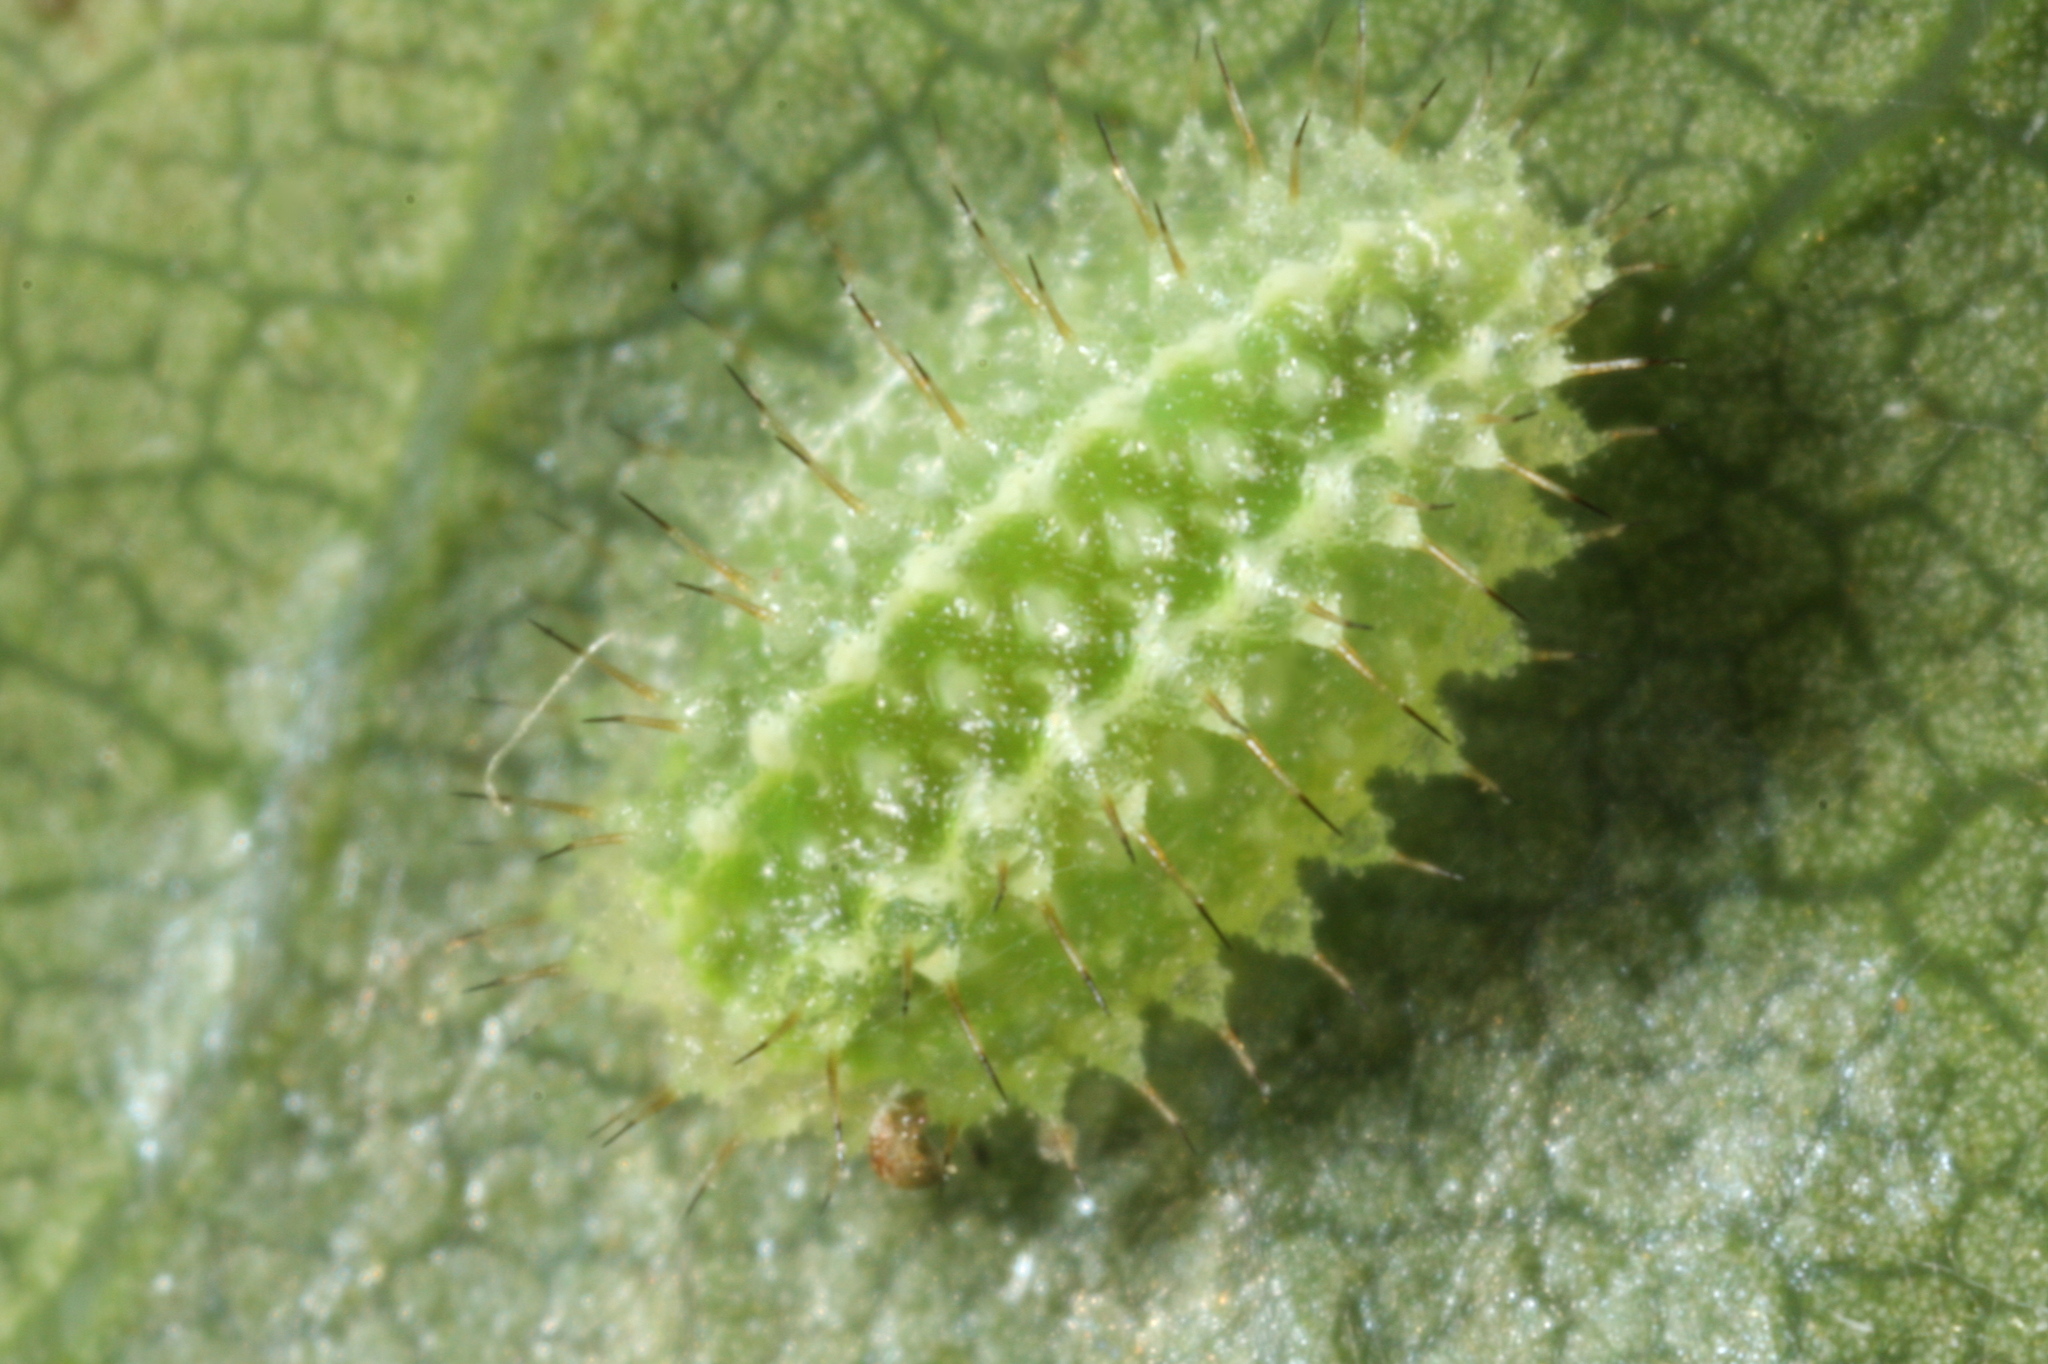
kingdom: Animalia
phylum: Arthropoda
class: Insecta
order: Lepidoptera
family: Limacodidae
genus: Apoda
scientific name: Apoda limacodes
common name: Festoon
